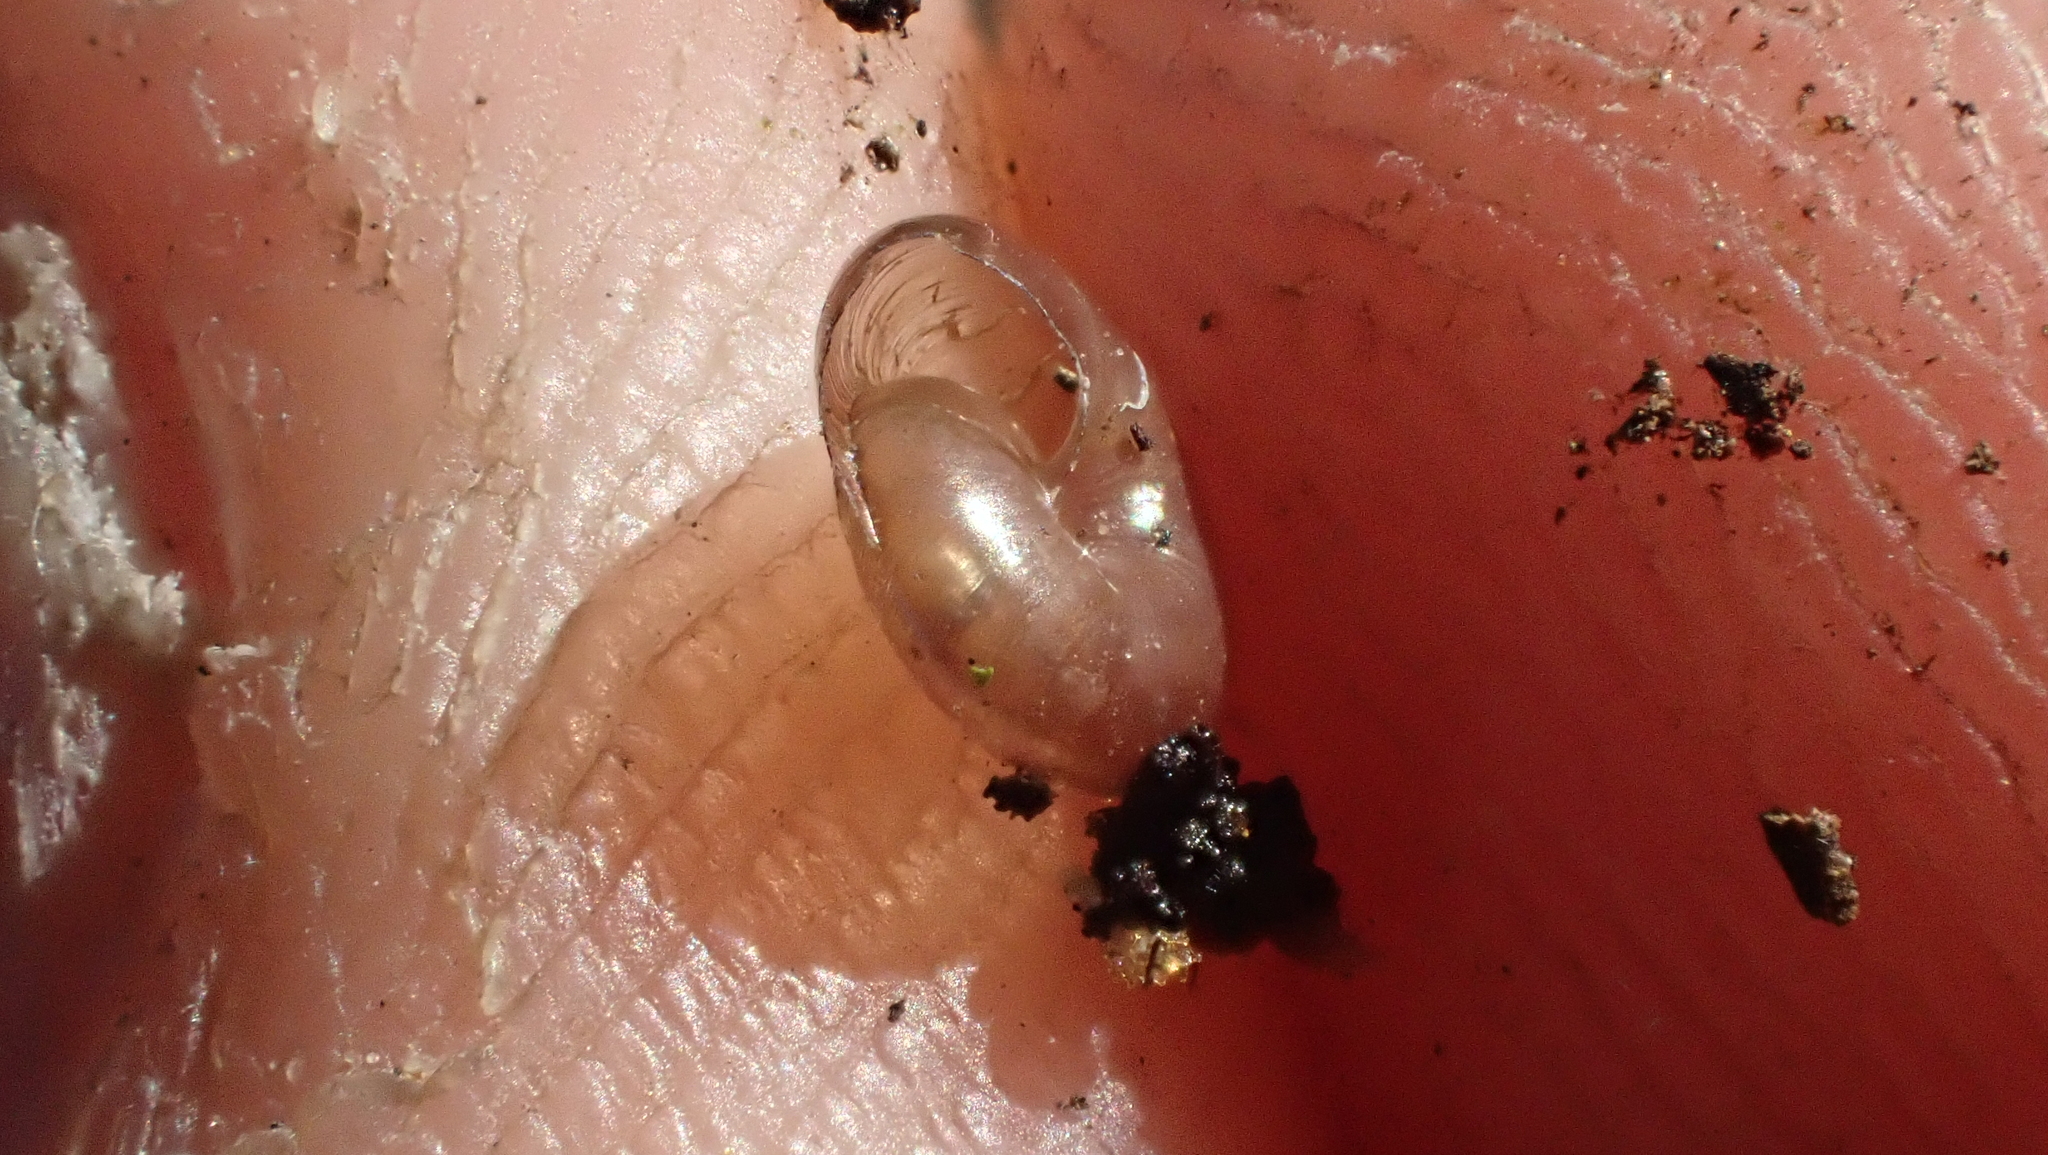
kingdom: Animalia
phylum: Mollusca
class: Gastropoda
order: Stylommatophora
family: Gastrodontidae
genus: Zonitoides
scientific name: Zonitoides arboreus
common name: Quick gloss
